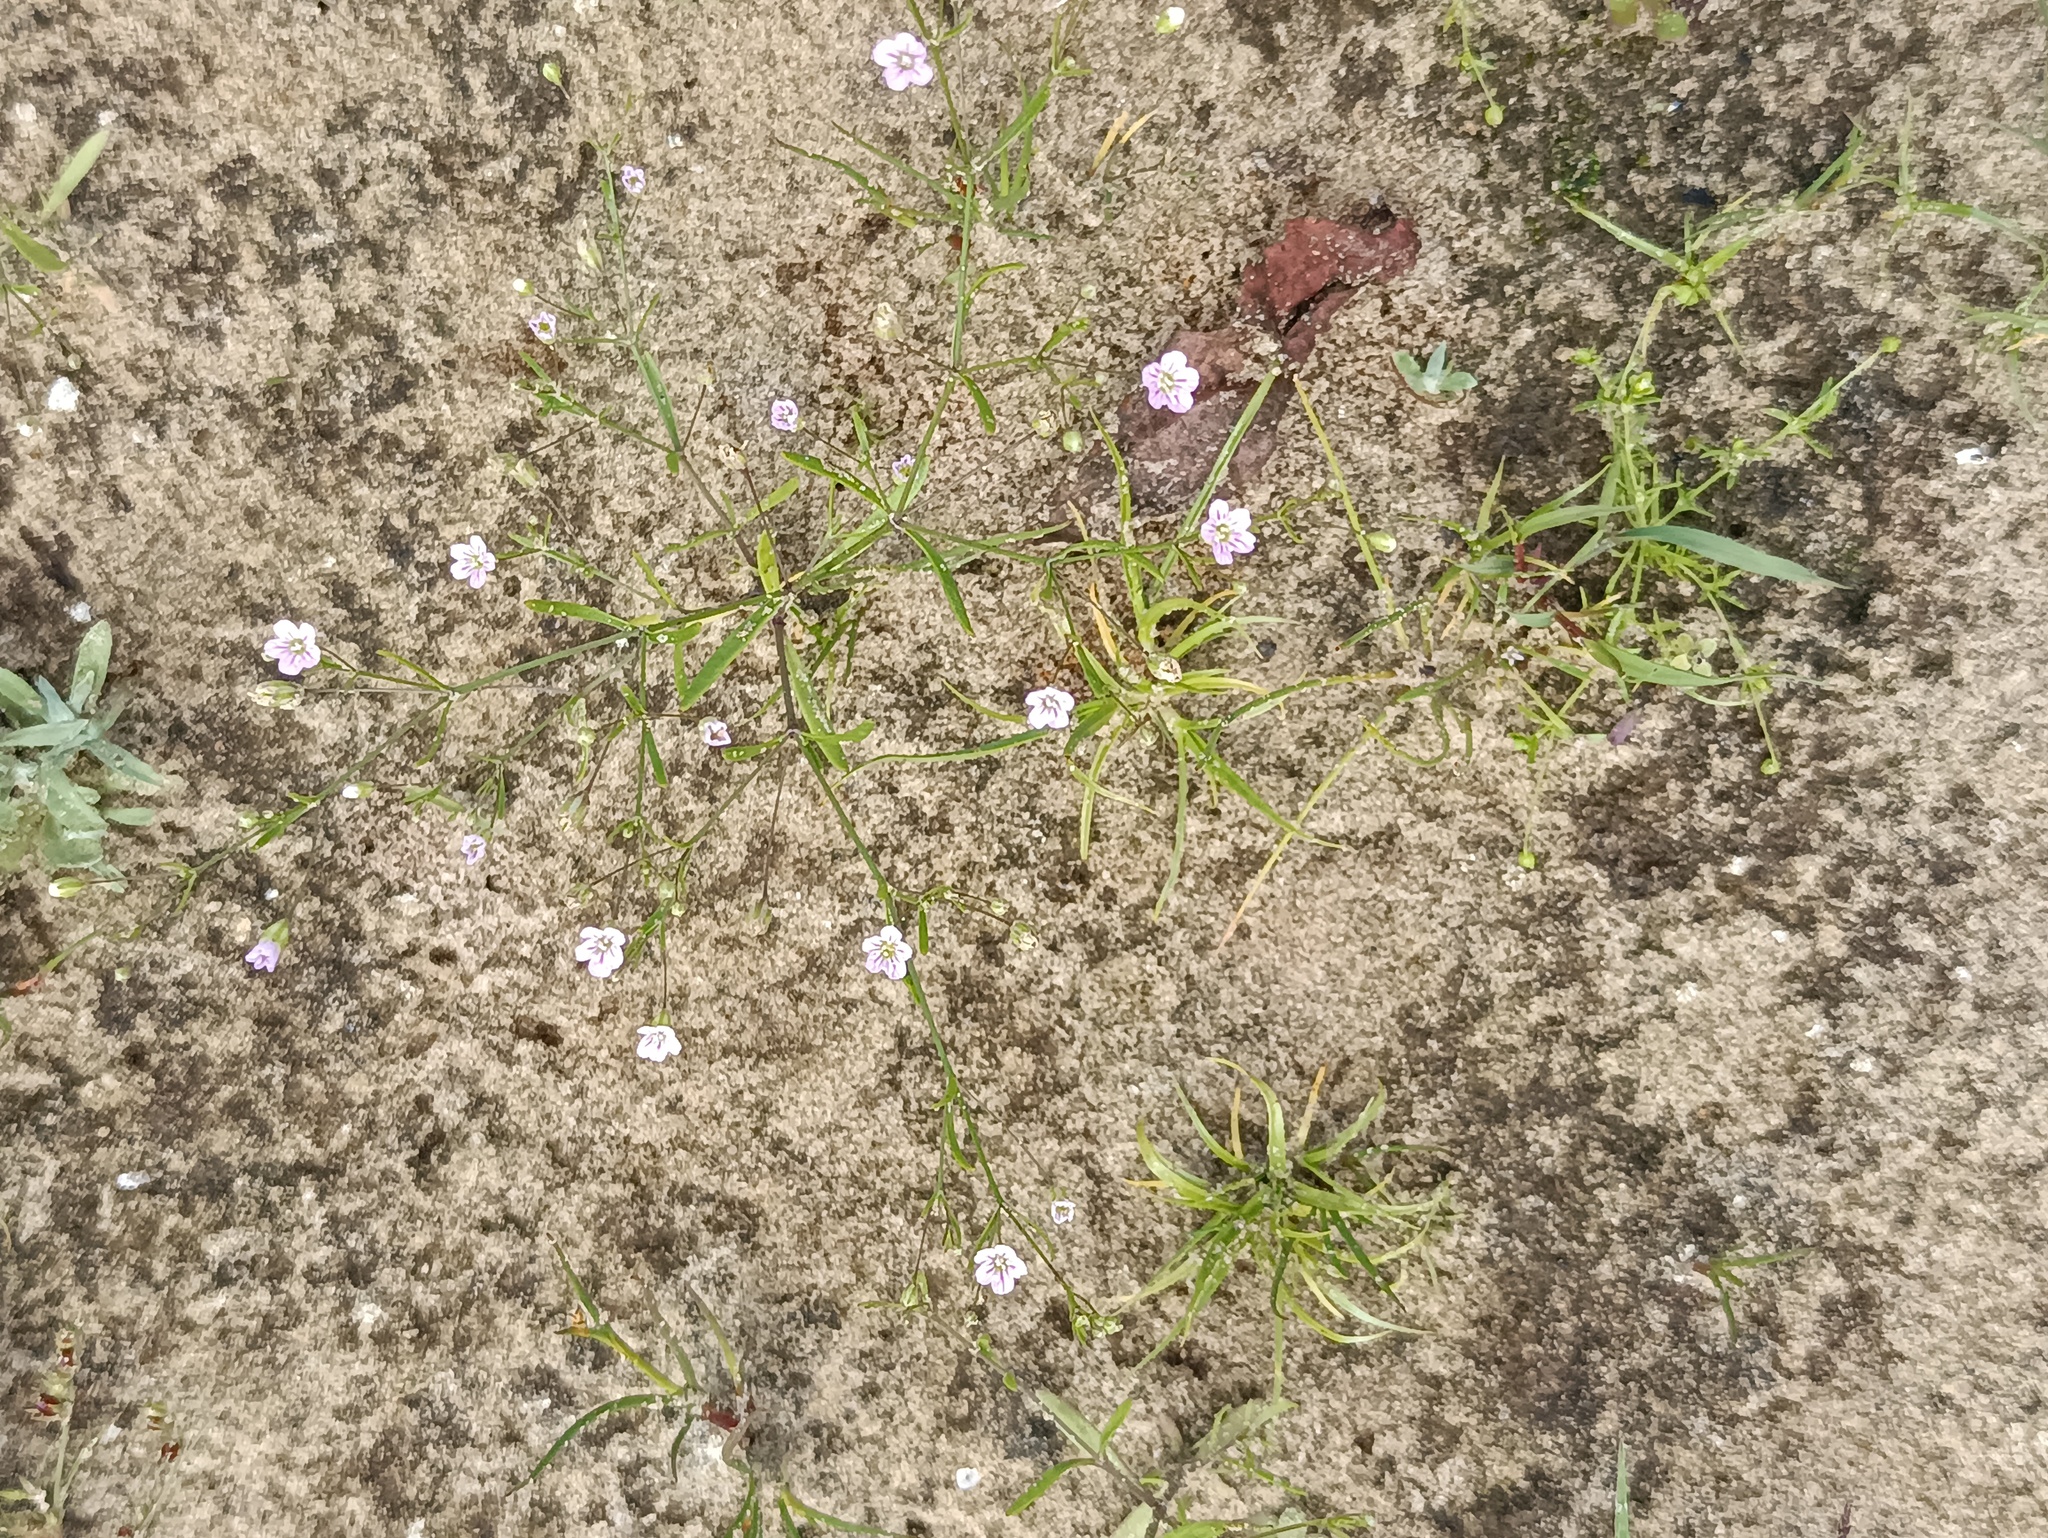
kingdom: Plantae
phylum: Tracheophyta
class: Magnoliopsida
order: Caryophyllales
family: Caryophyllaceae
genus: Psammophiliella
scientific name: Psammophiliella muralis
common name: Cushion baby's-breath
